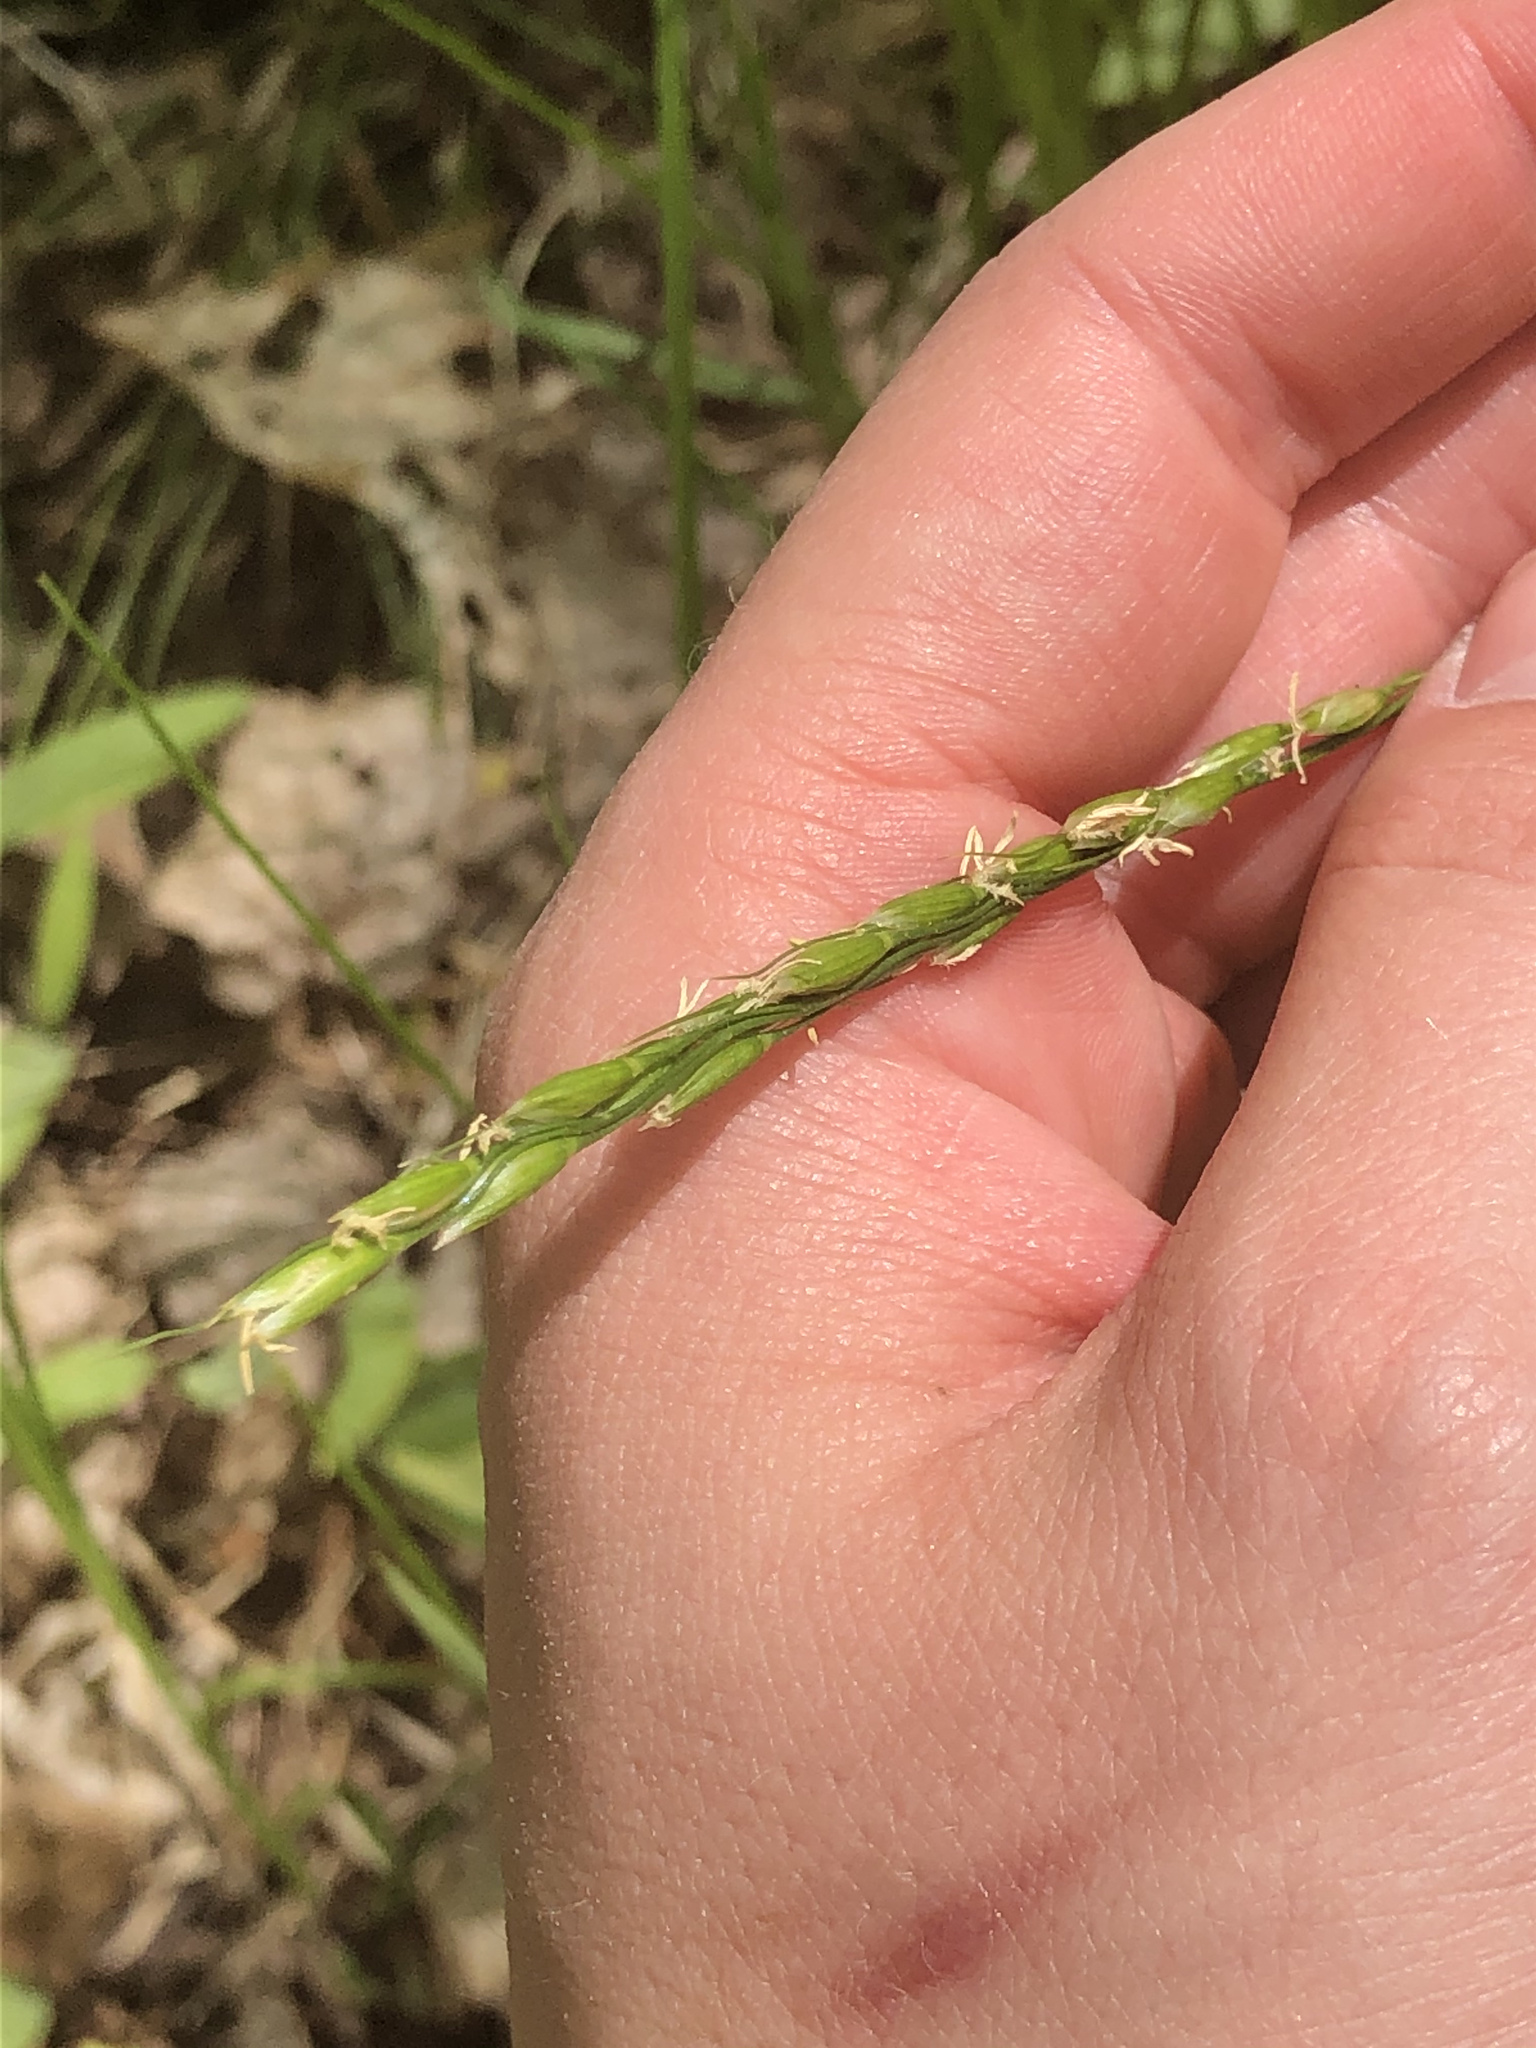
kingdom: Plantae
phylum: Tracheophyta
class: Liliopsida
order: Poales
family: Poaceae
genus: Oryzopsis
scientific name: Oryzopsis asperifolia
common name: Rough-leaved mountain rice
